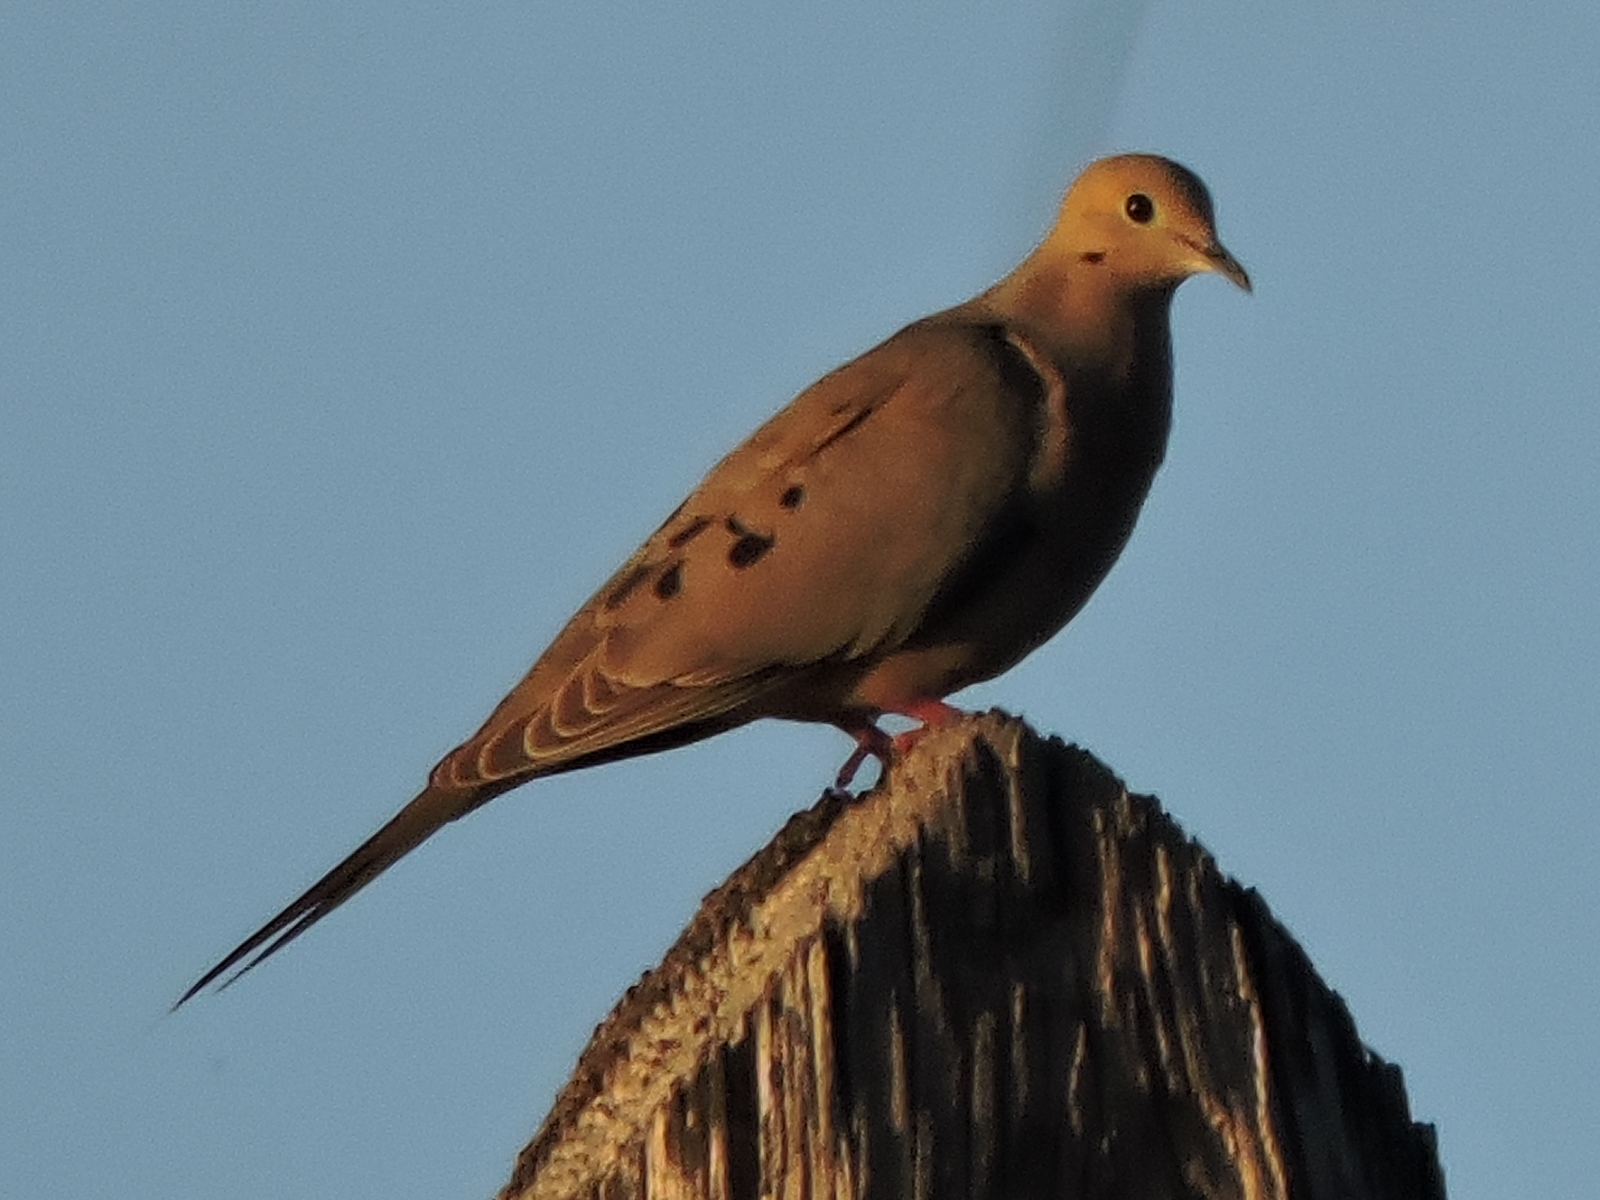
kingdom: Animalia
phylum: Chordata
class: Aves
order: Columbiformes
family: Columbidae
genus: Zenaida
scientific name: Zenaida macroura
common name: Mourning dove
